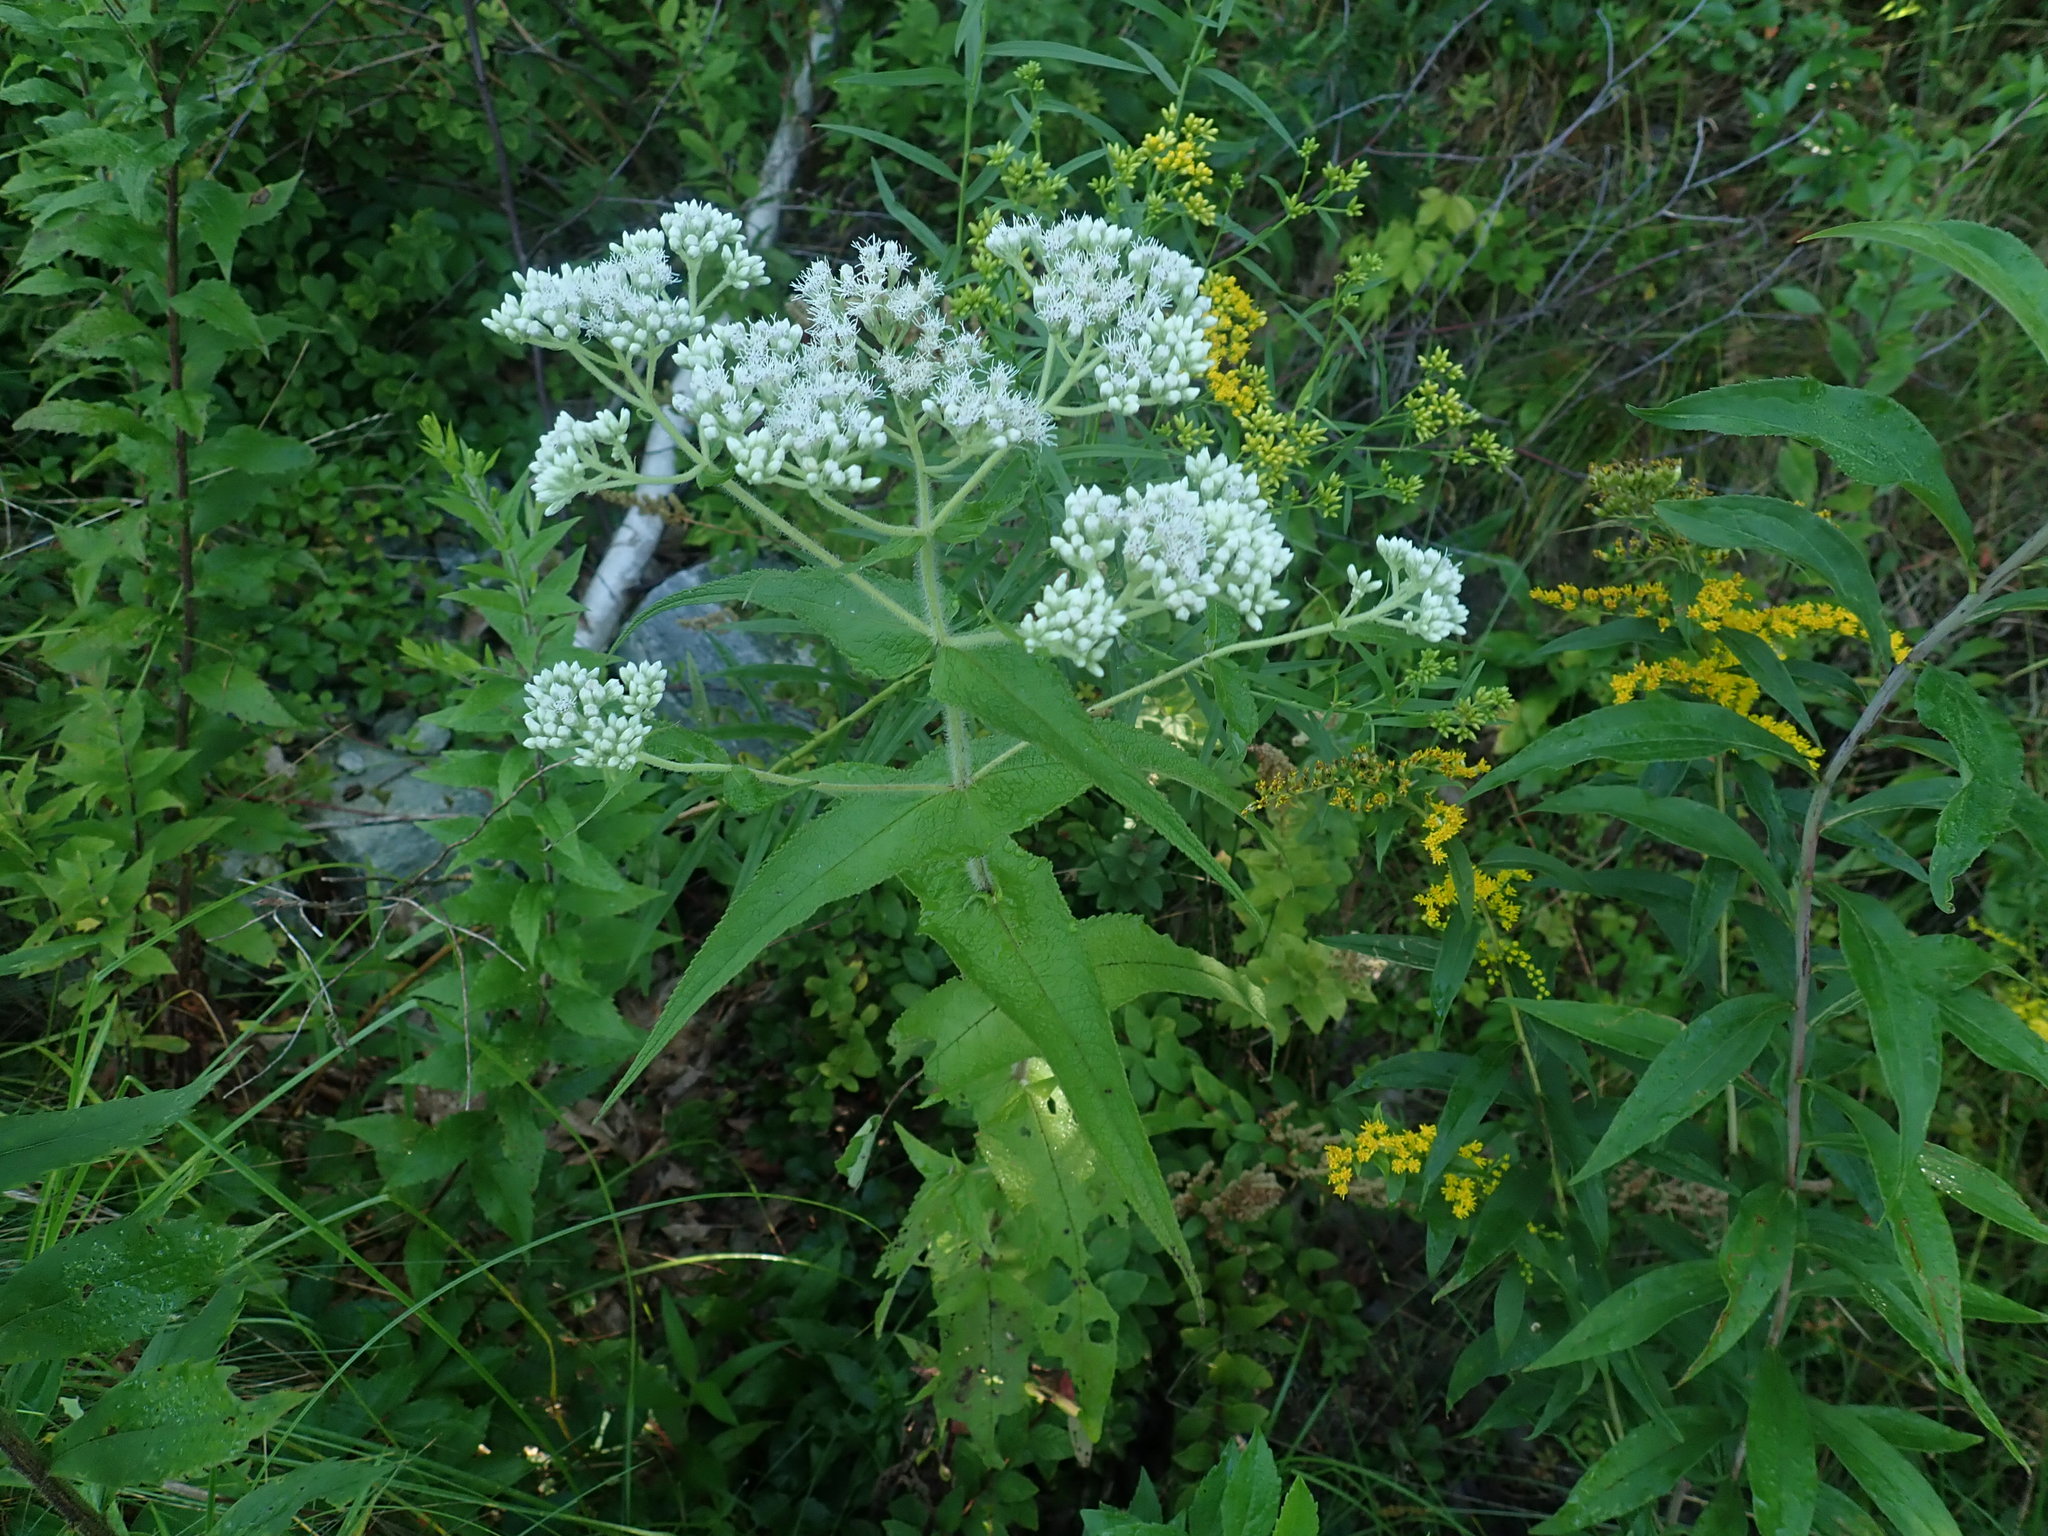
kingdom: Plantae
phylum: Tracheophyta
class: Magnoliopsida
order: Asterales
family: Asteraceae
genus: Eupatorium
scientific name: Eupatorium perfoliatum
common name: Boneset
